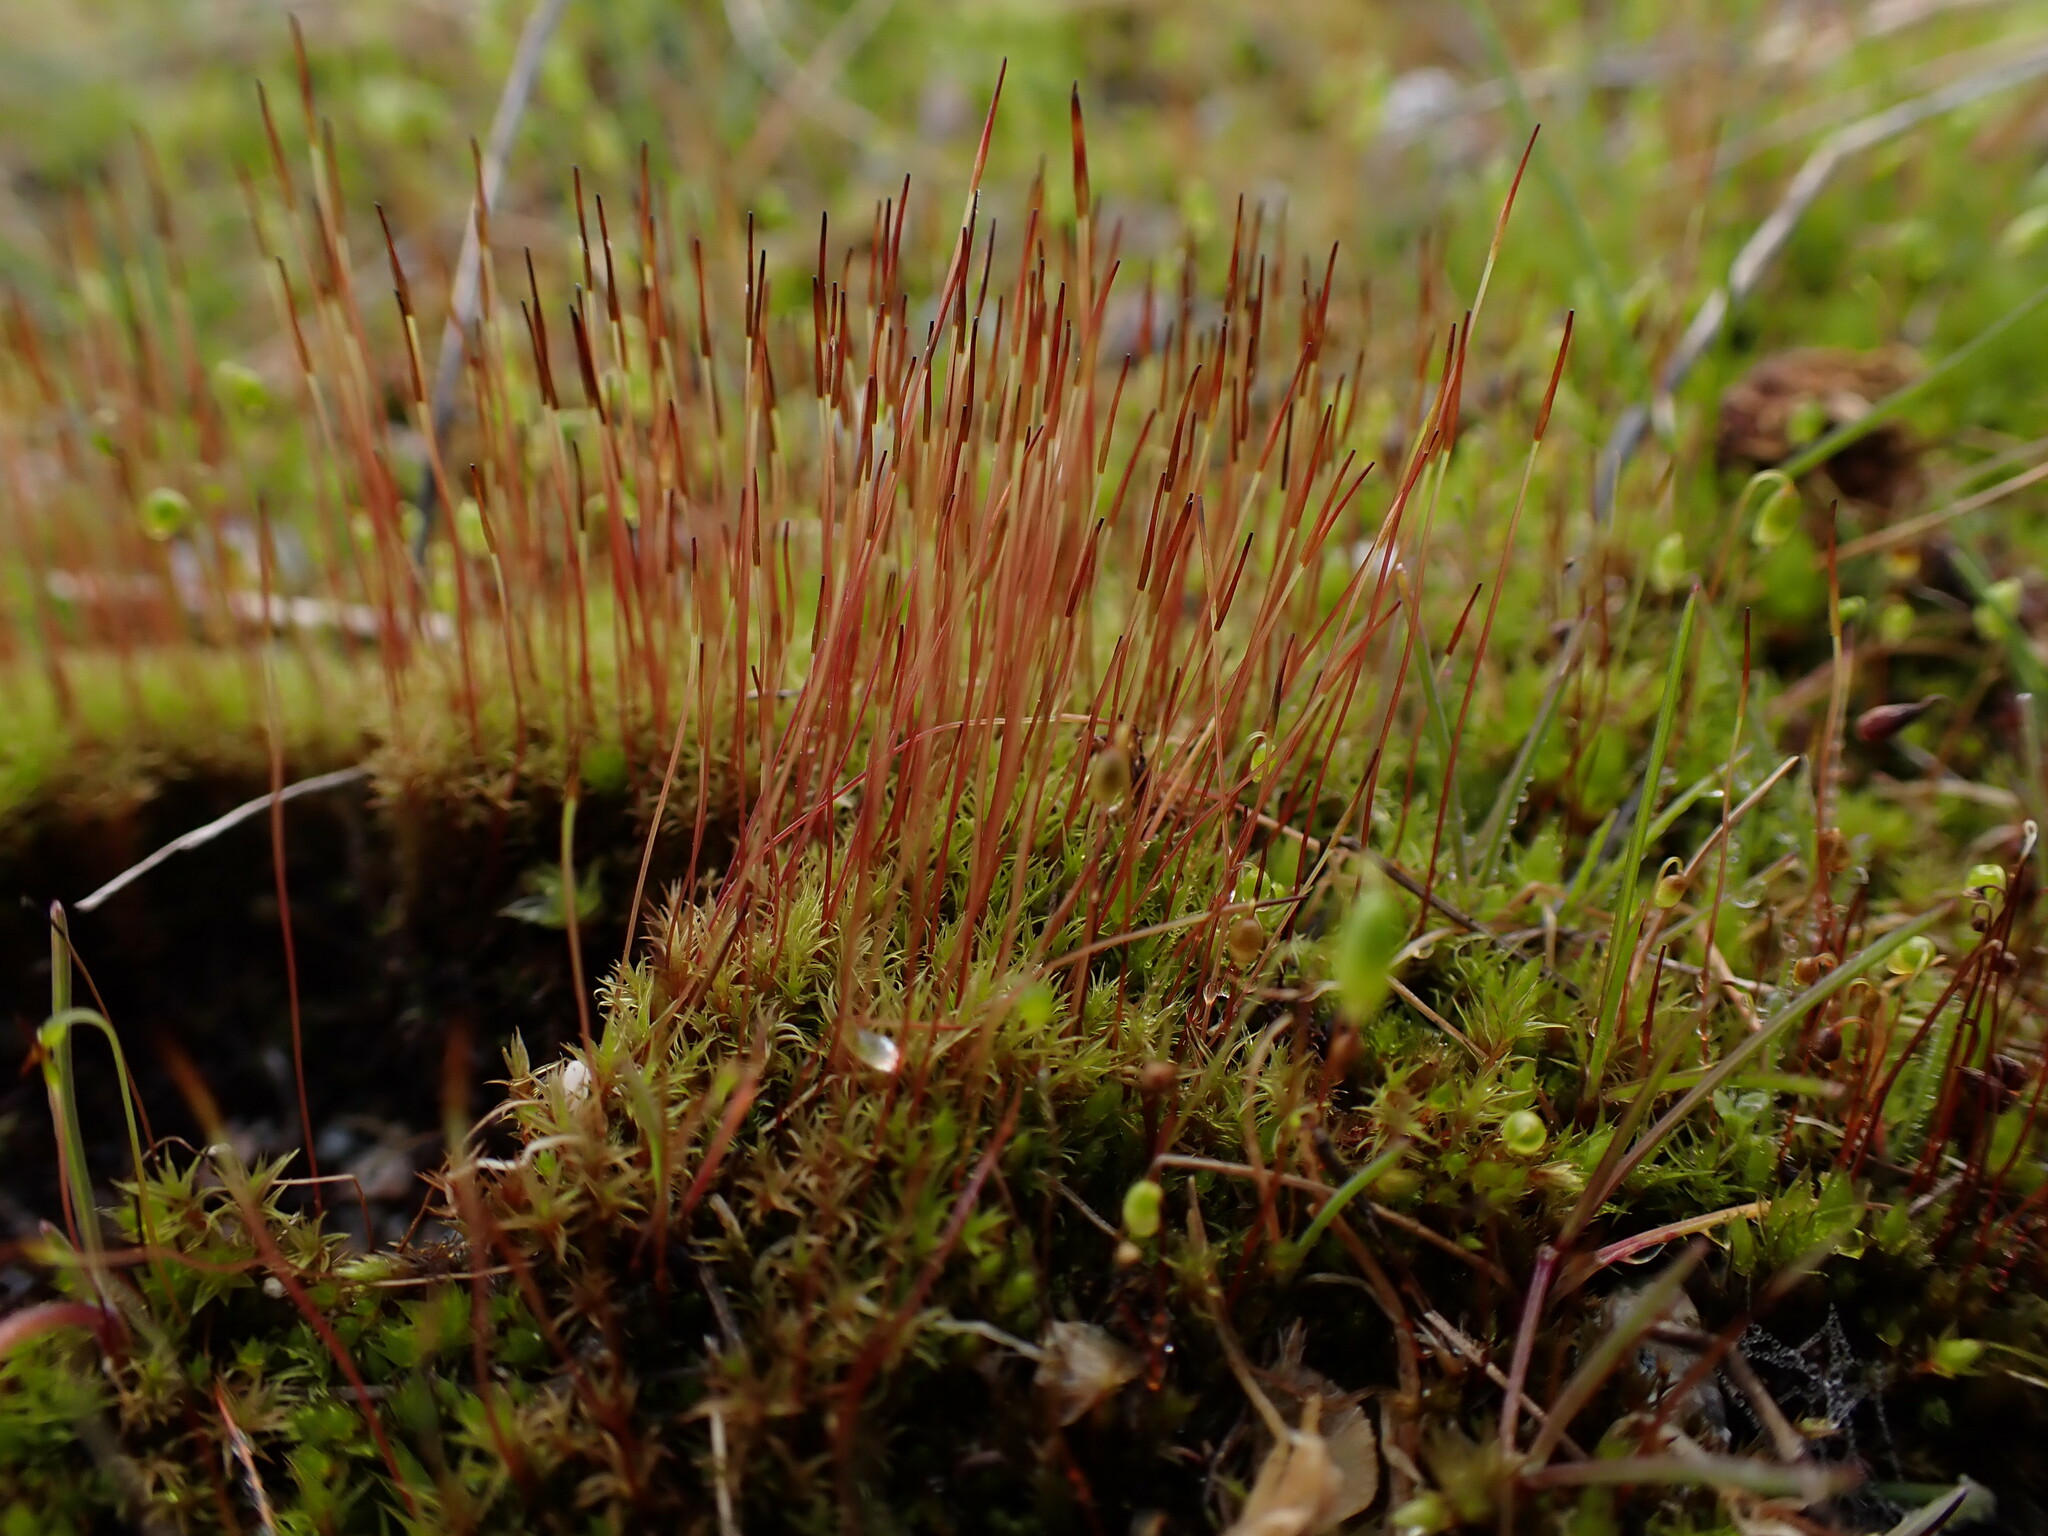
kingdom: Plantae
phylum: Bryophyta
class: Bryopsida
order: Dicranales
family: Ditrichaceae
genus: Ceratodon
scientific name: Ceratodon purpureus
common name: Redshank
